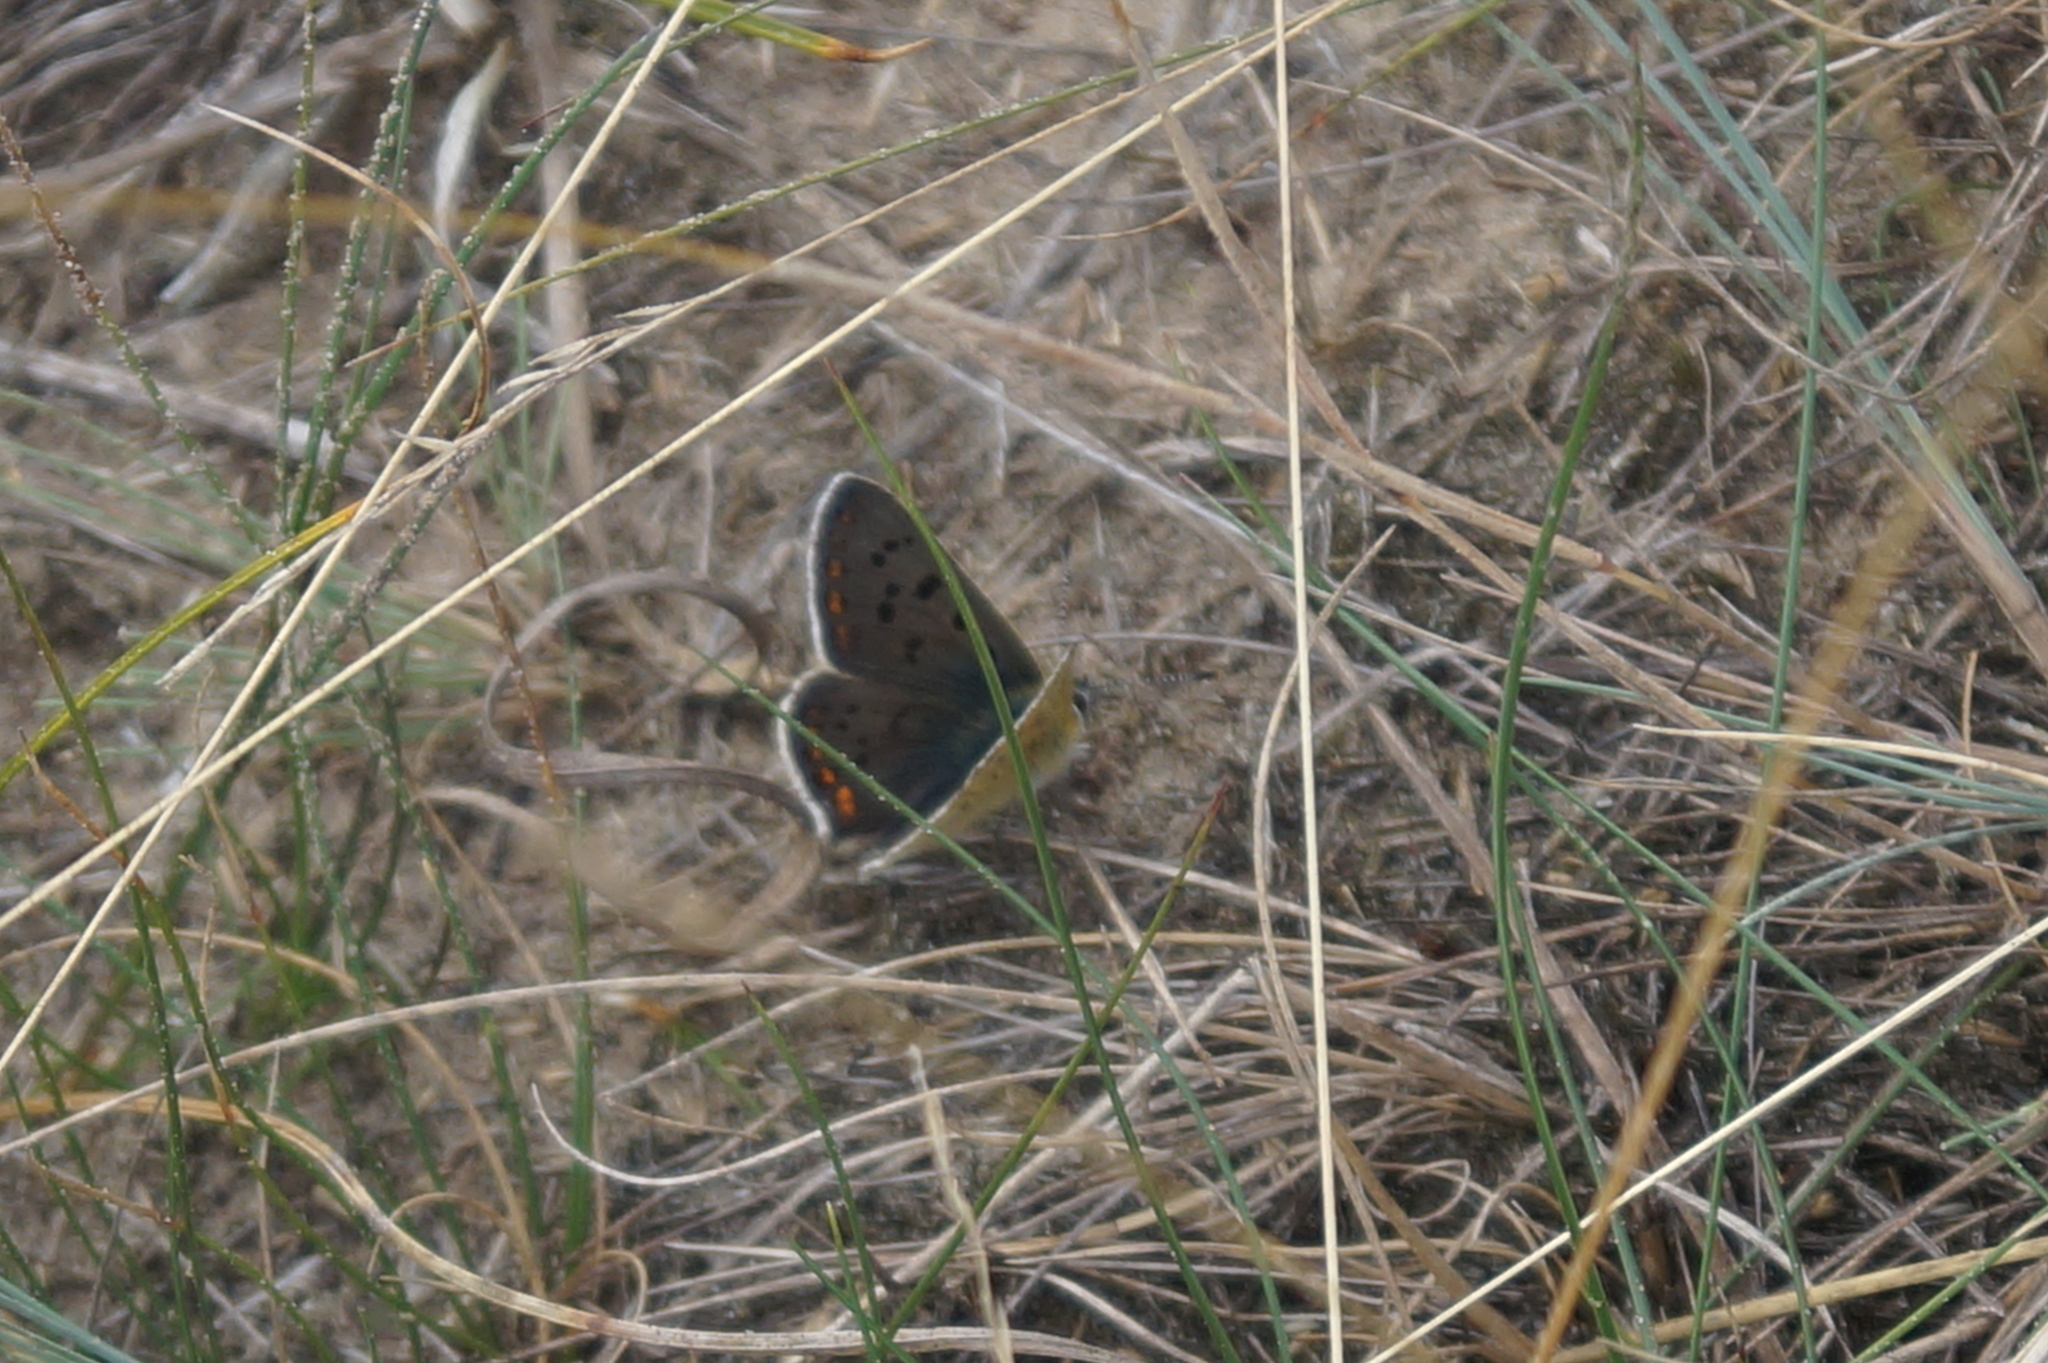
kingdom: Animalia
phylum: Arthropoda
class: Insecta
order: Lepidoptera
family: Lycaenidae
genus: Loweia
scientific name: Loweia tityrus
